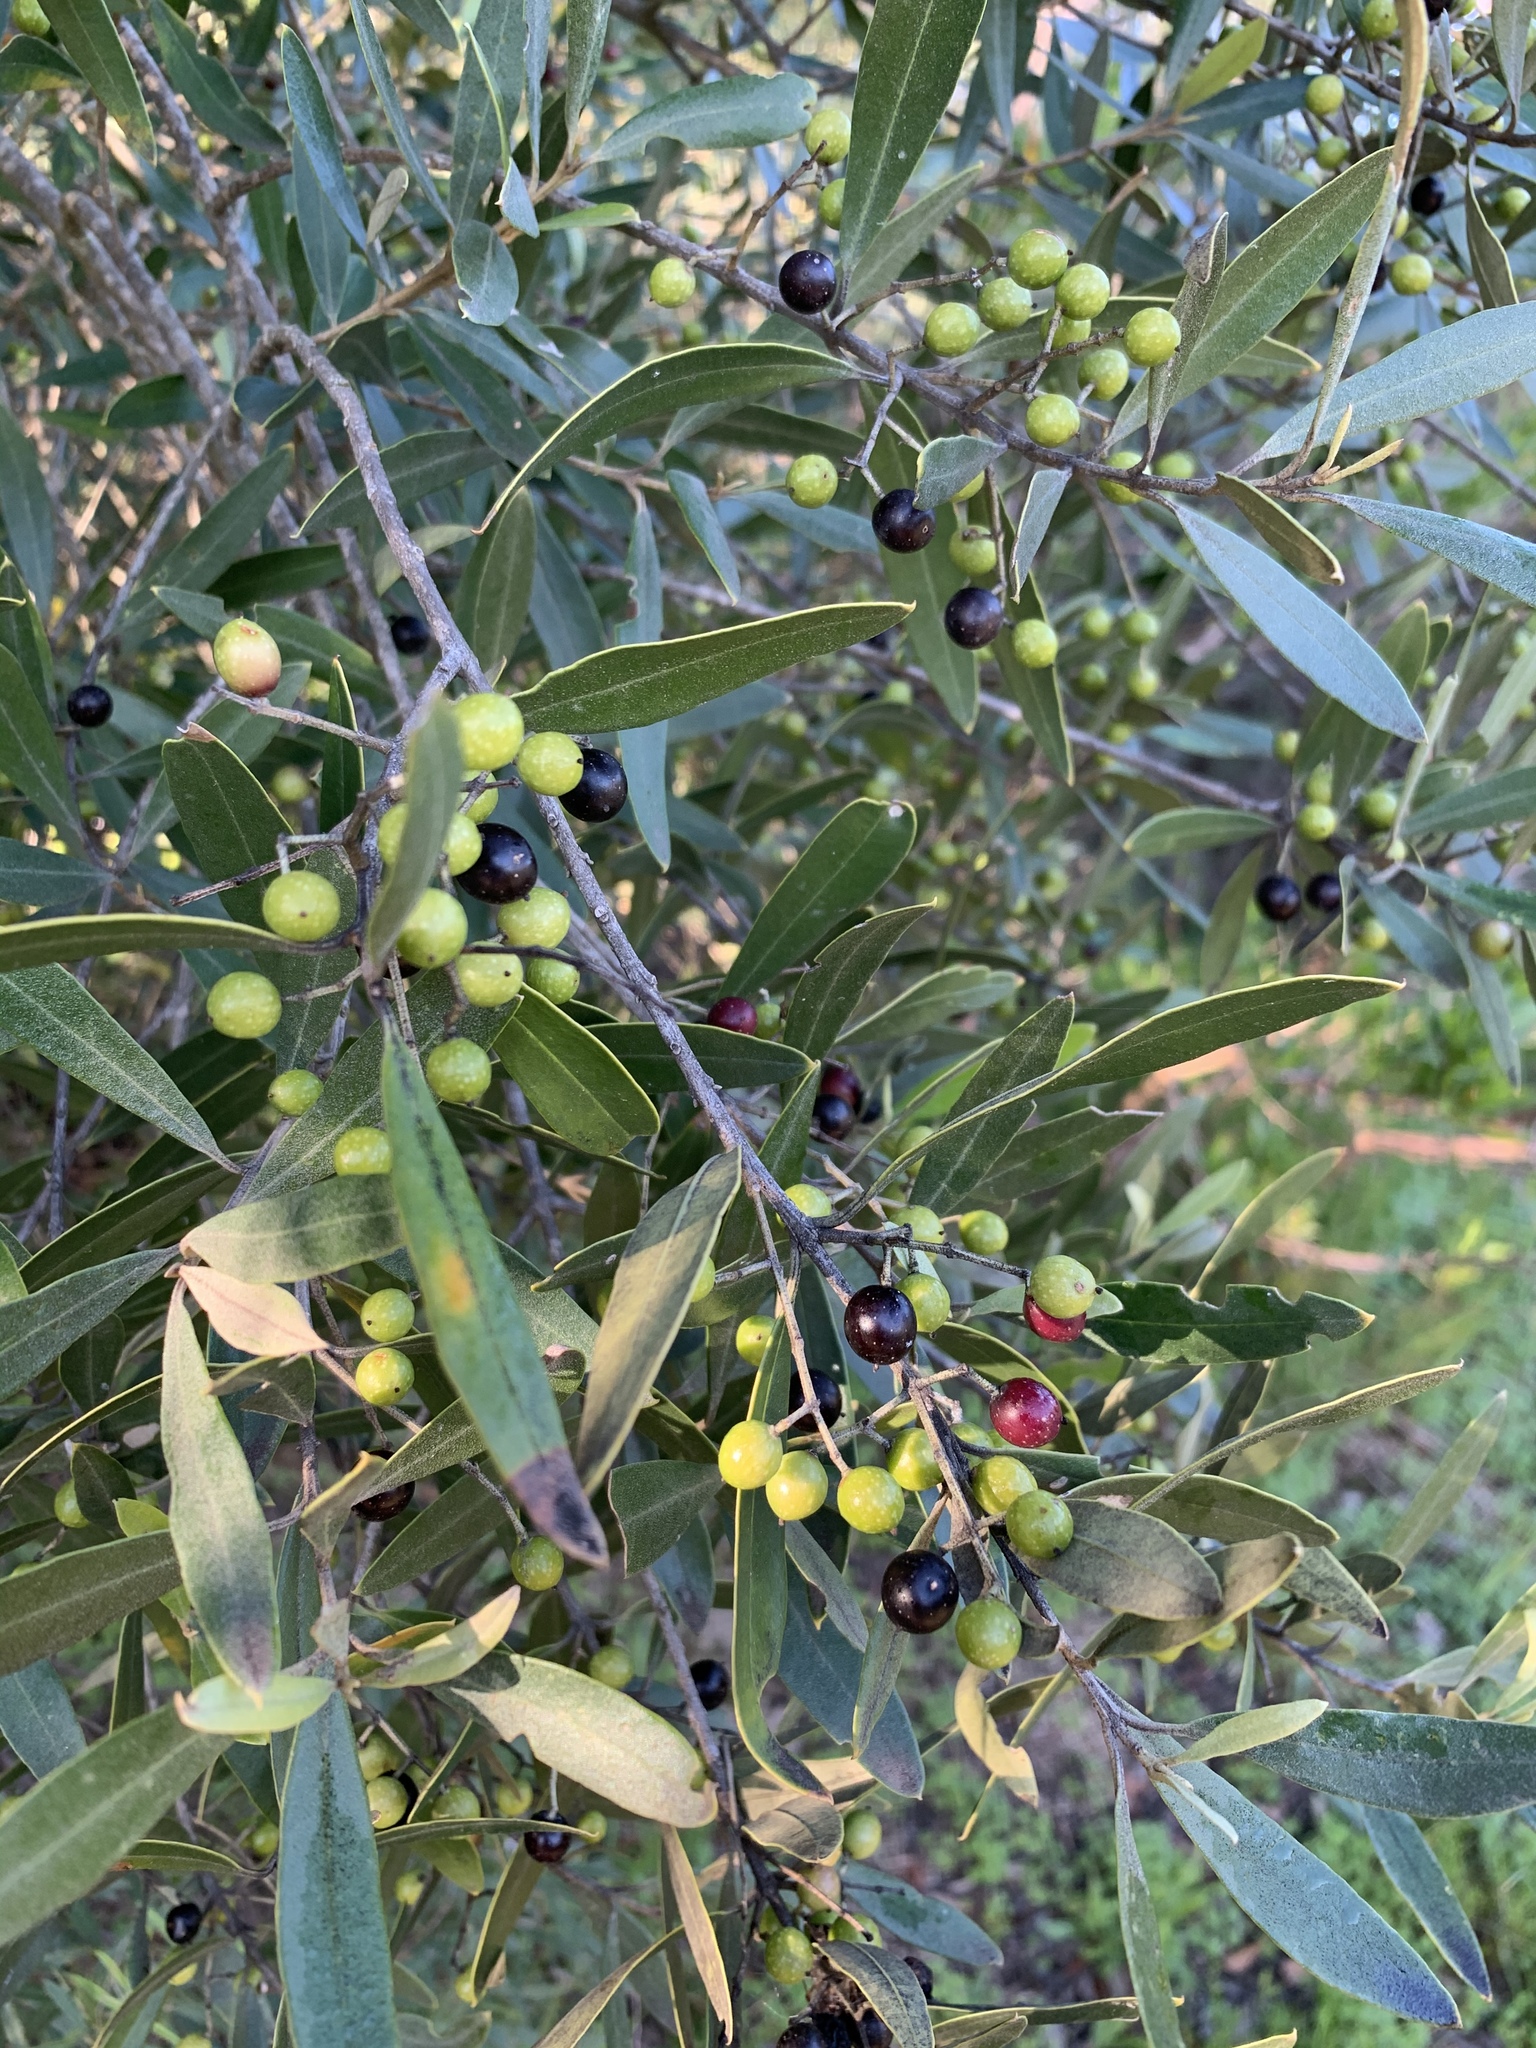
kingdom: Plantae
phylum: Tracheophyta
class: Magnoliopsida
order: Lamiales
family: Oleaceae
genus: Olea
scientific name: Olea europaea
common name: Olive
